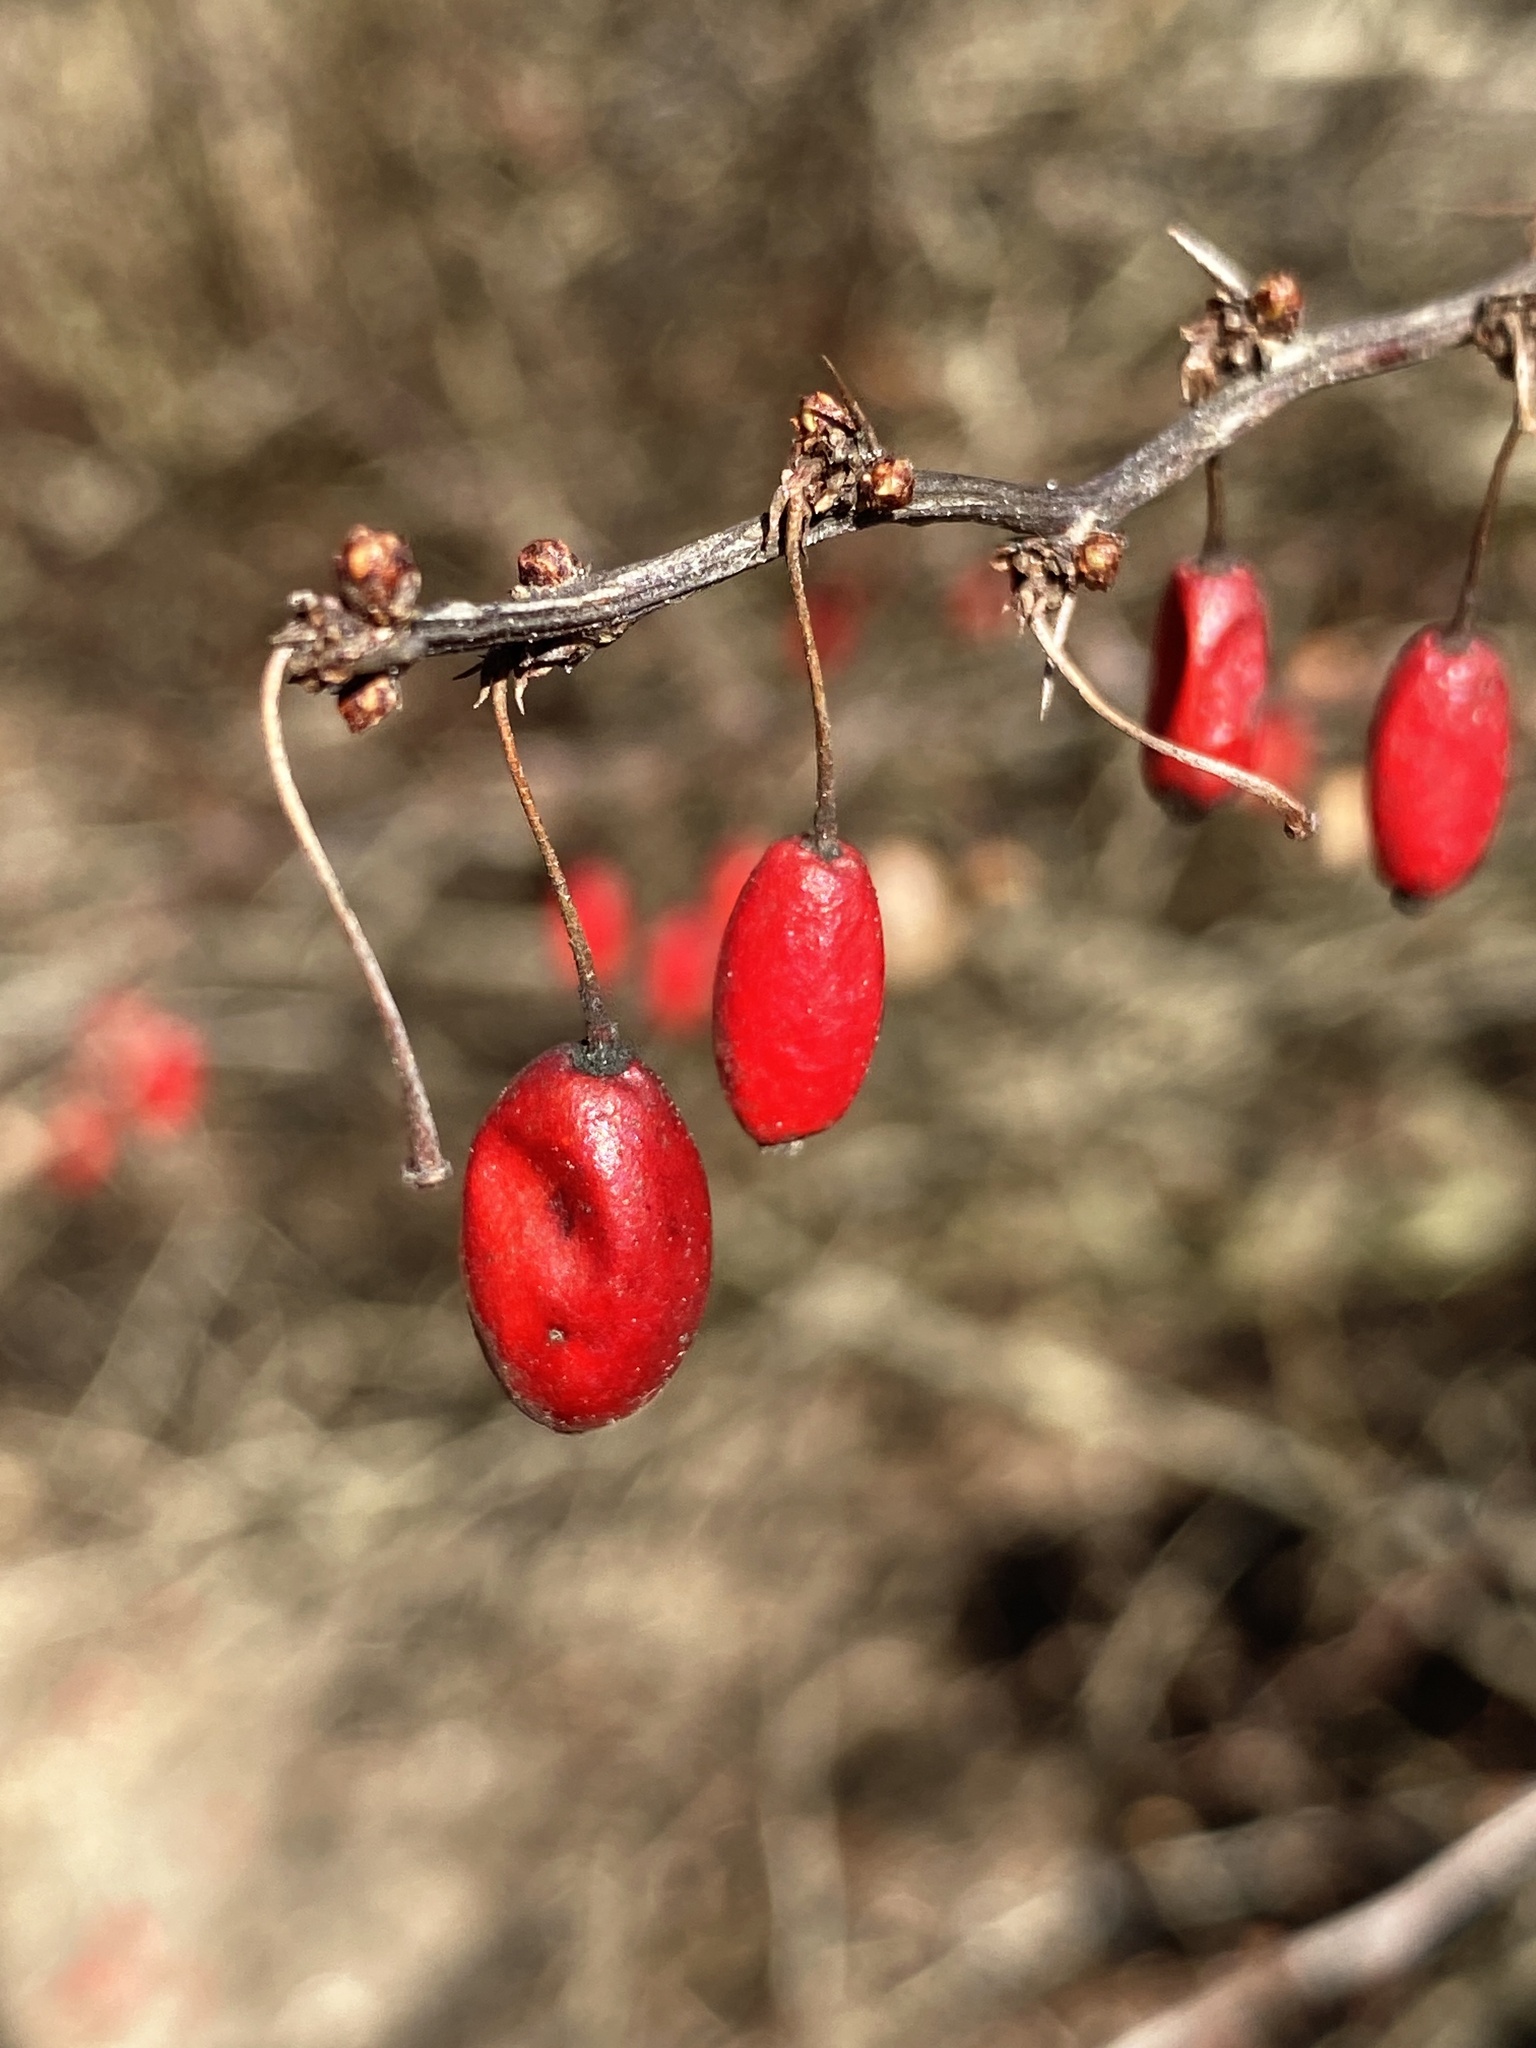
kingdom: Plantae
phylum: Tracheophyta
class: Magnoliopsida
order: Ranunculales
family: Berberidaceae
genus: Berberis
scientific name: Berberis thunbergii
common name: Japanese barberry
